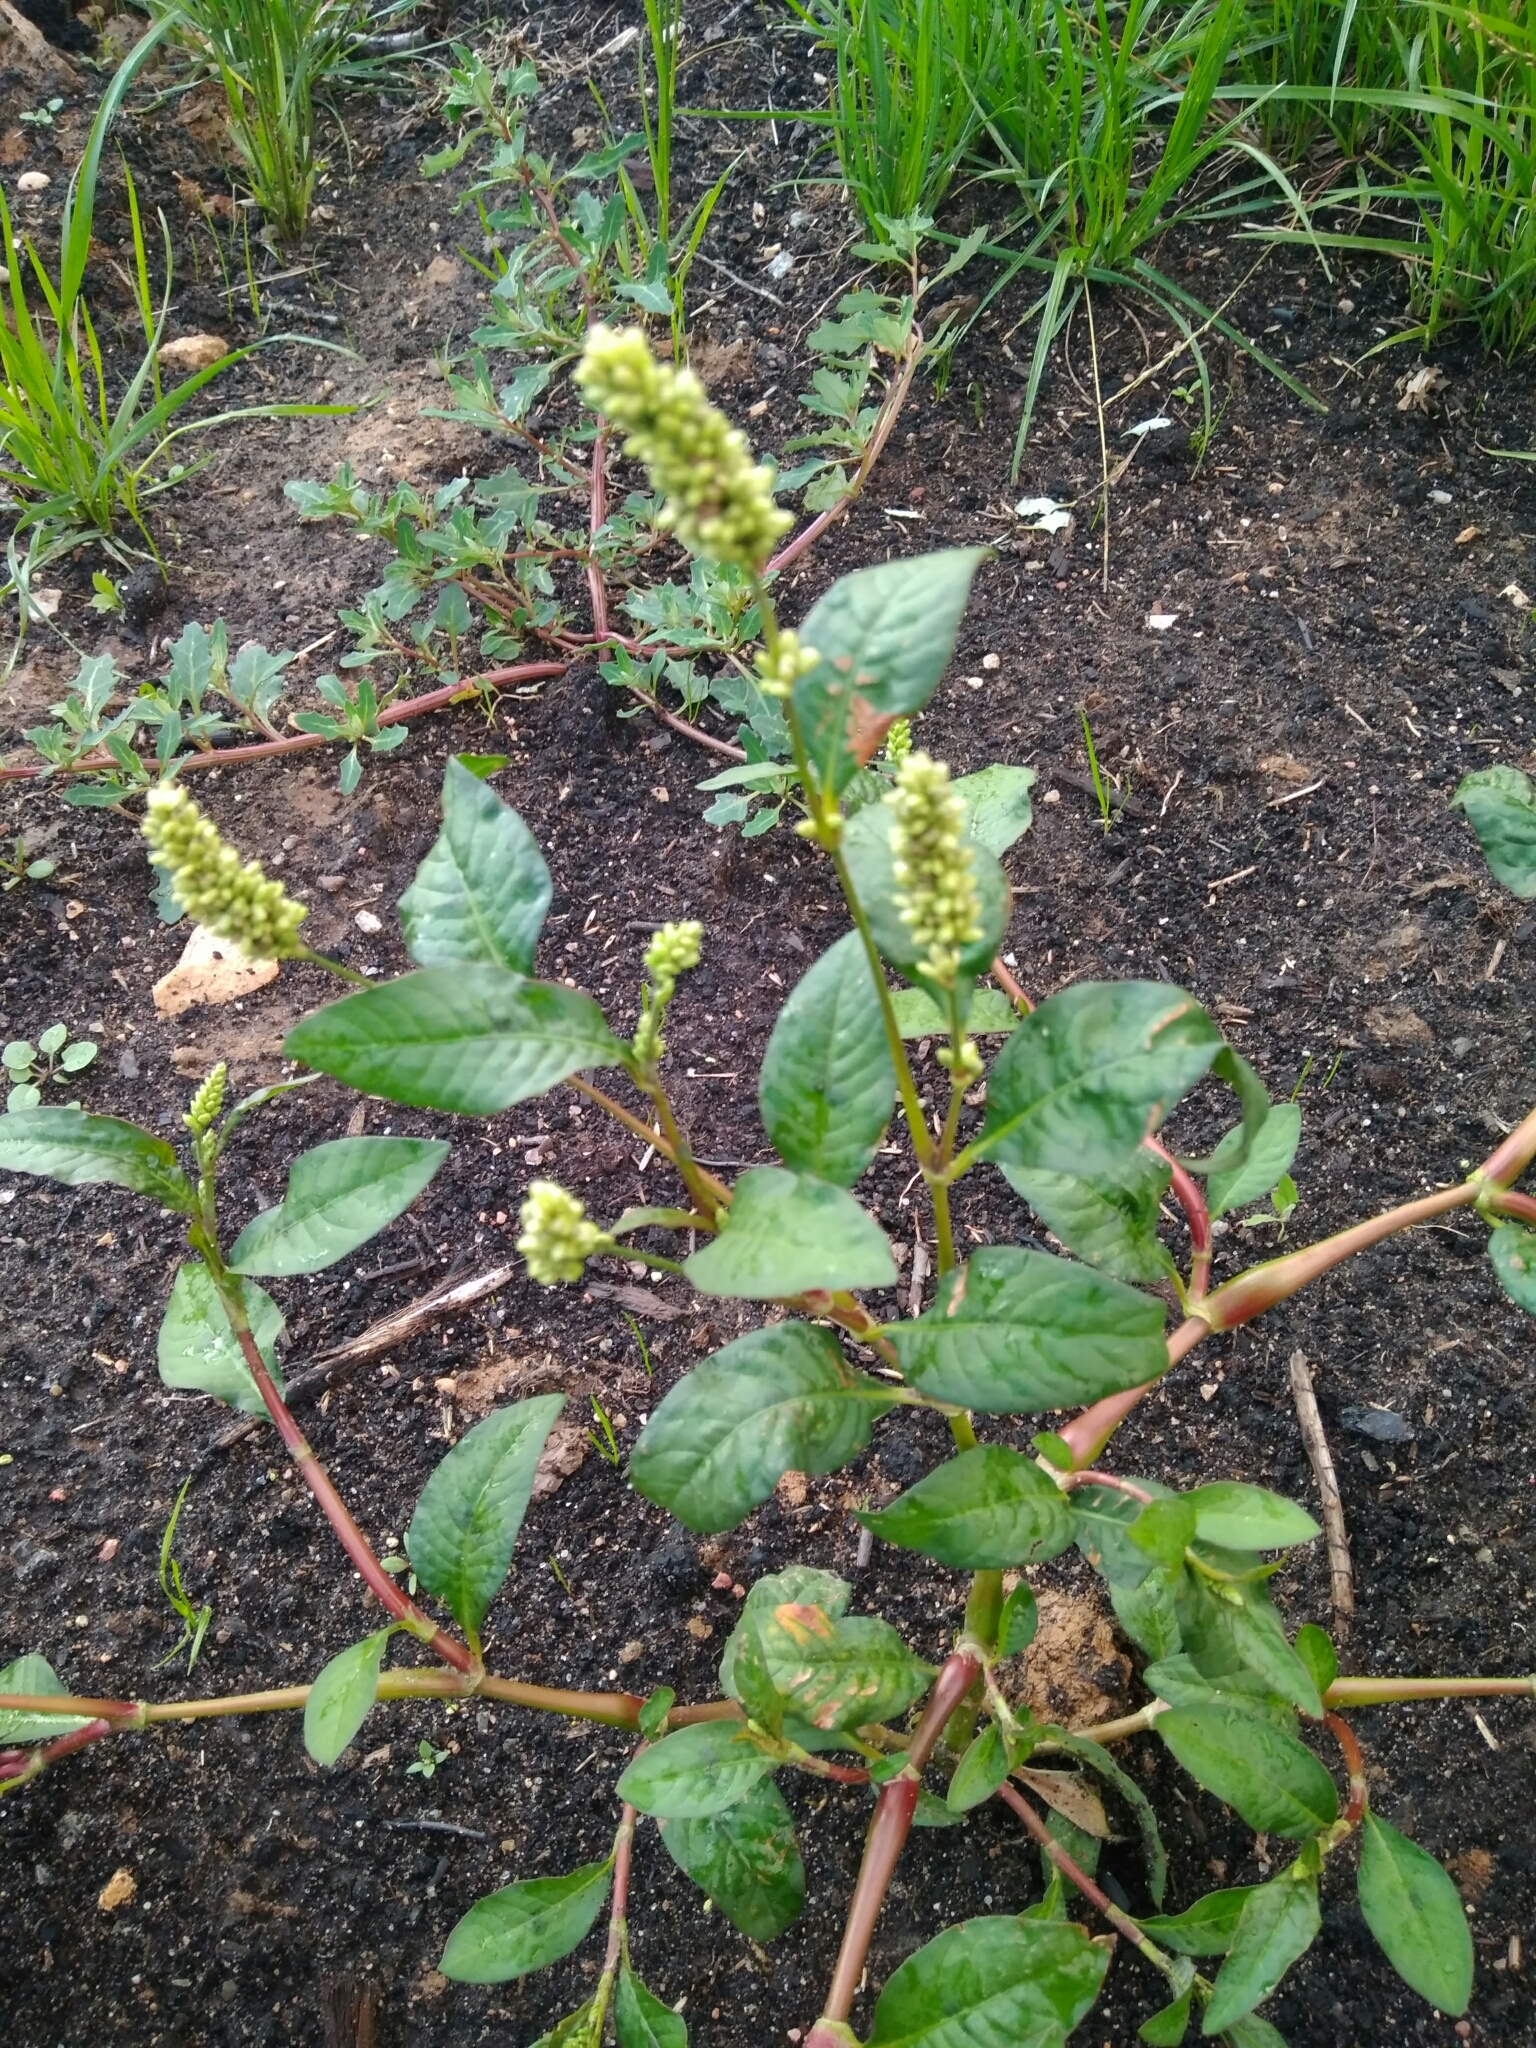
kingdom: Plantae
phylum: Tracheophyta
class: Magnoliopsida
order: Caryophyllales
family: Polygonaceae
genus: Persicaria
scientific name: Persicaria lapathifolia
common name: Curlytop knotweed
